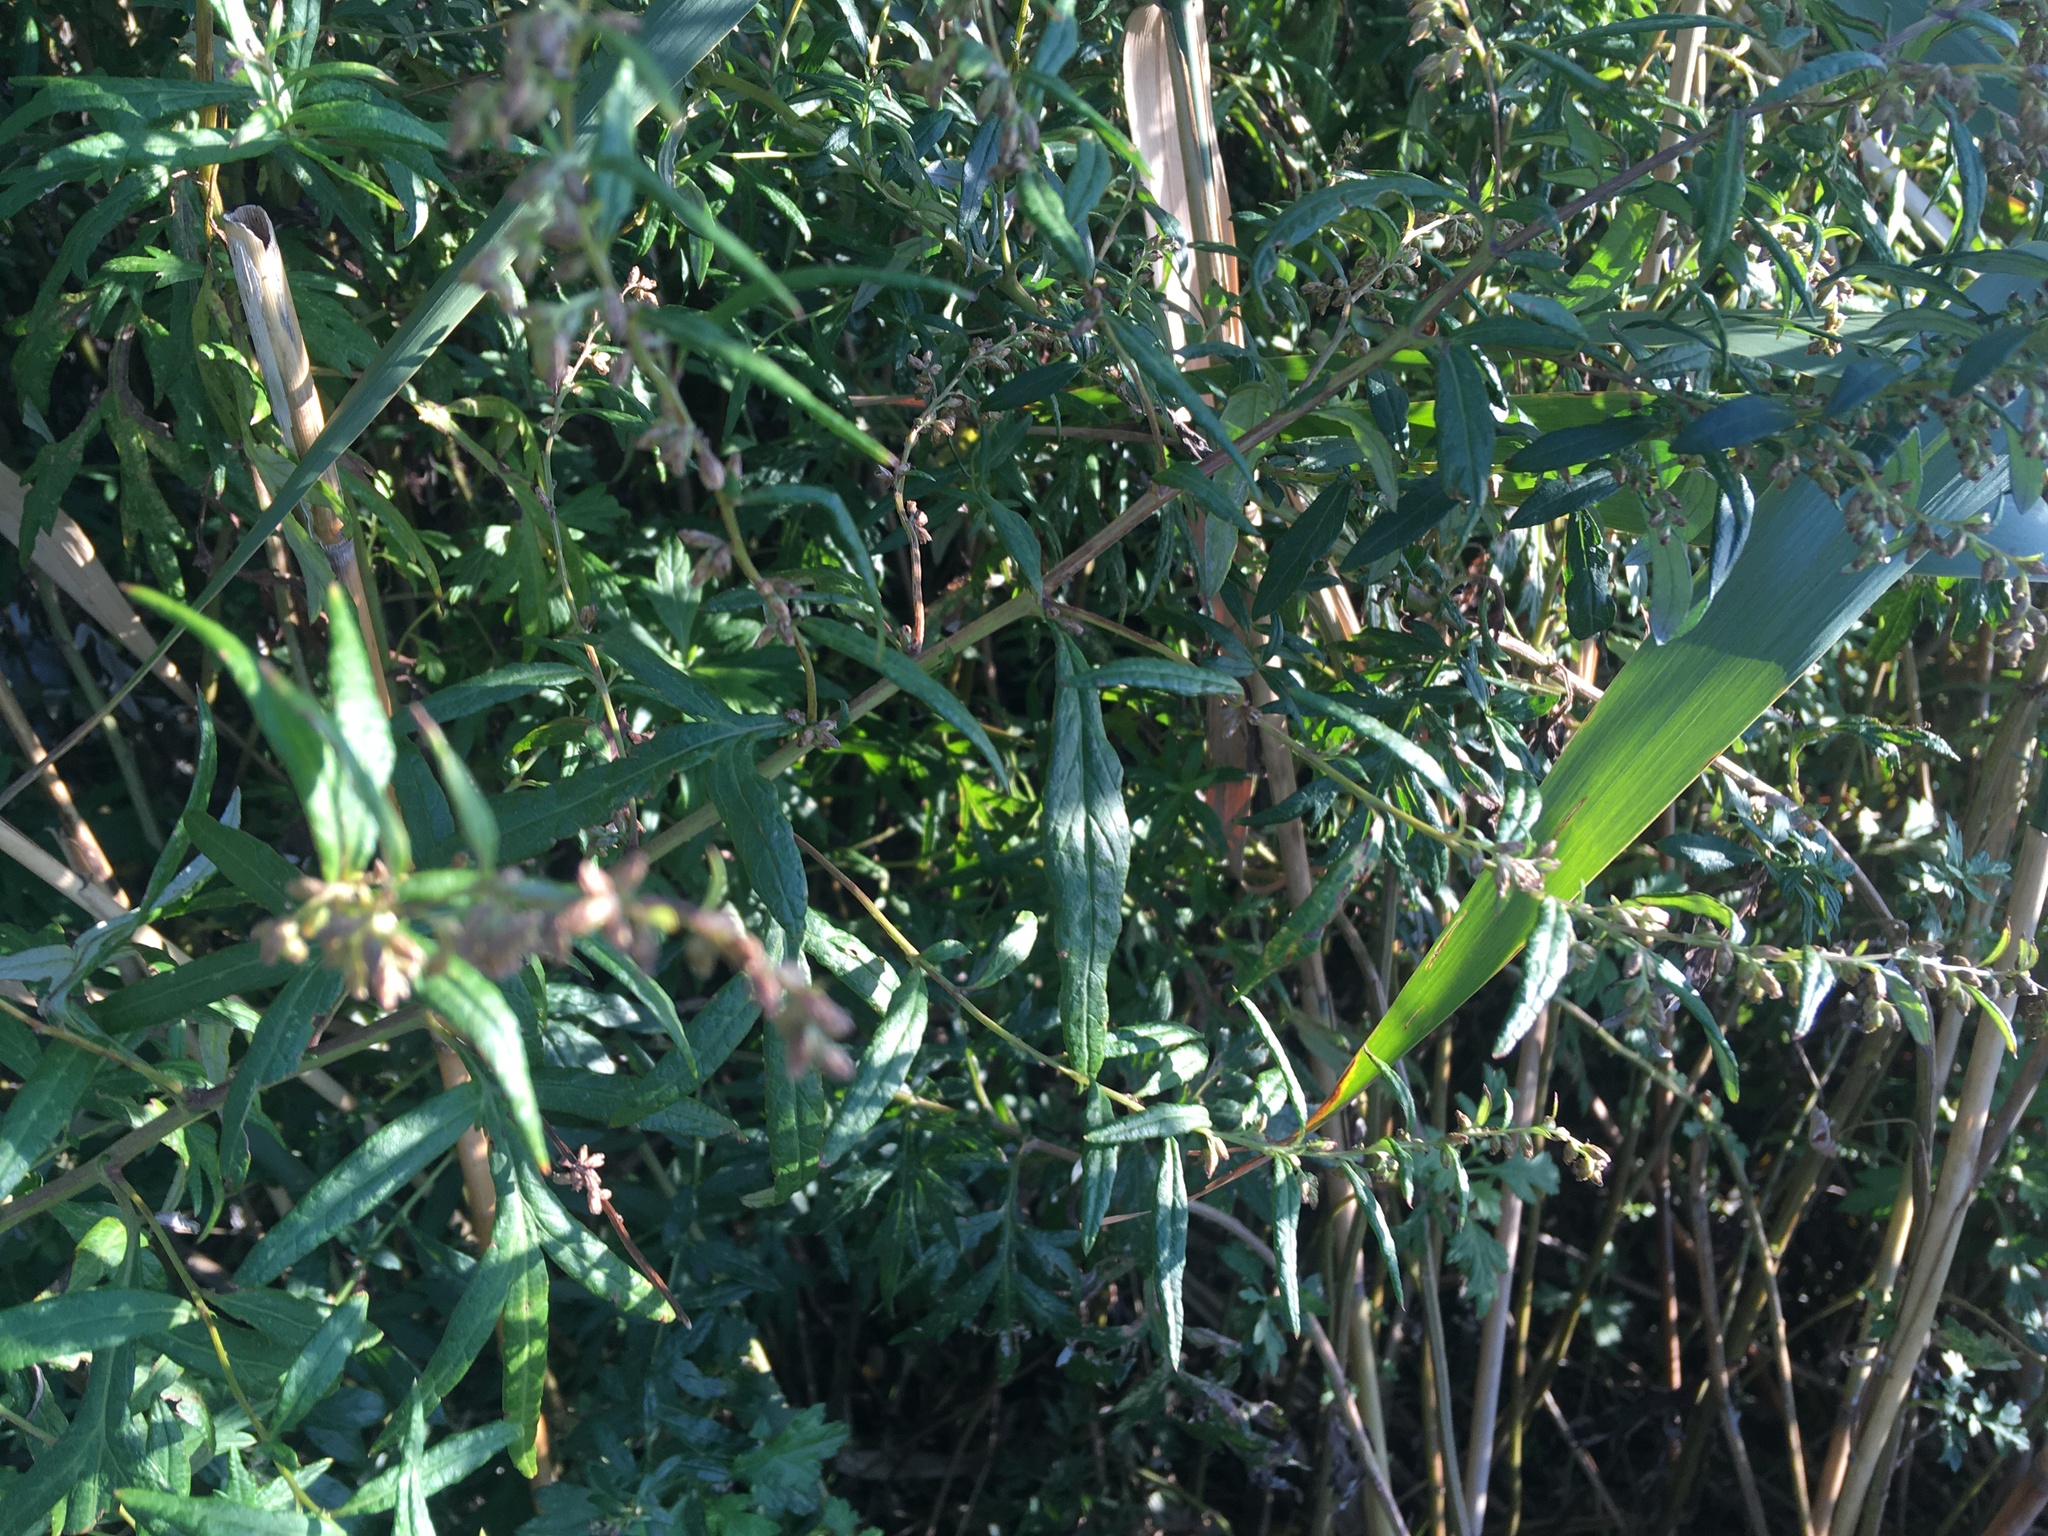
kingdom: Plantae
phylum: Tracheophyta
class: Magnoliopsida
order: Asterales
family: Asteraceae
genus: Artemisia
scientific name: Artemisia vulgaris
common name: Mugwort
